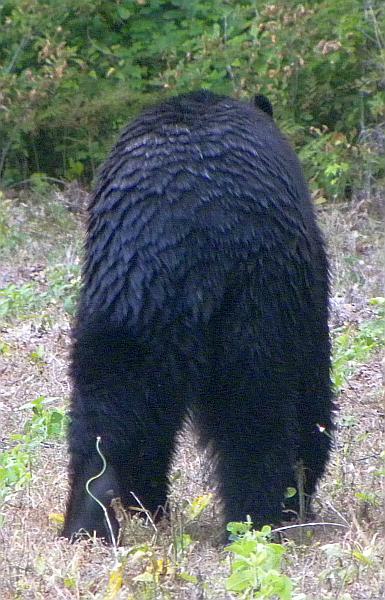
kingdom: Animalia
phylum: Chordata
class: Mammalia
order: Carnivora
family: Ursidae
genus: Ursus
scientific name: Ursus americanus
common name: American black bear
